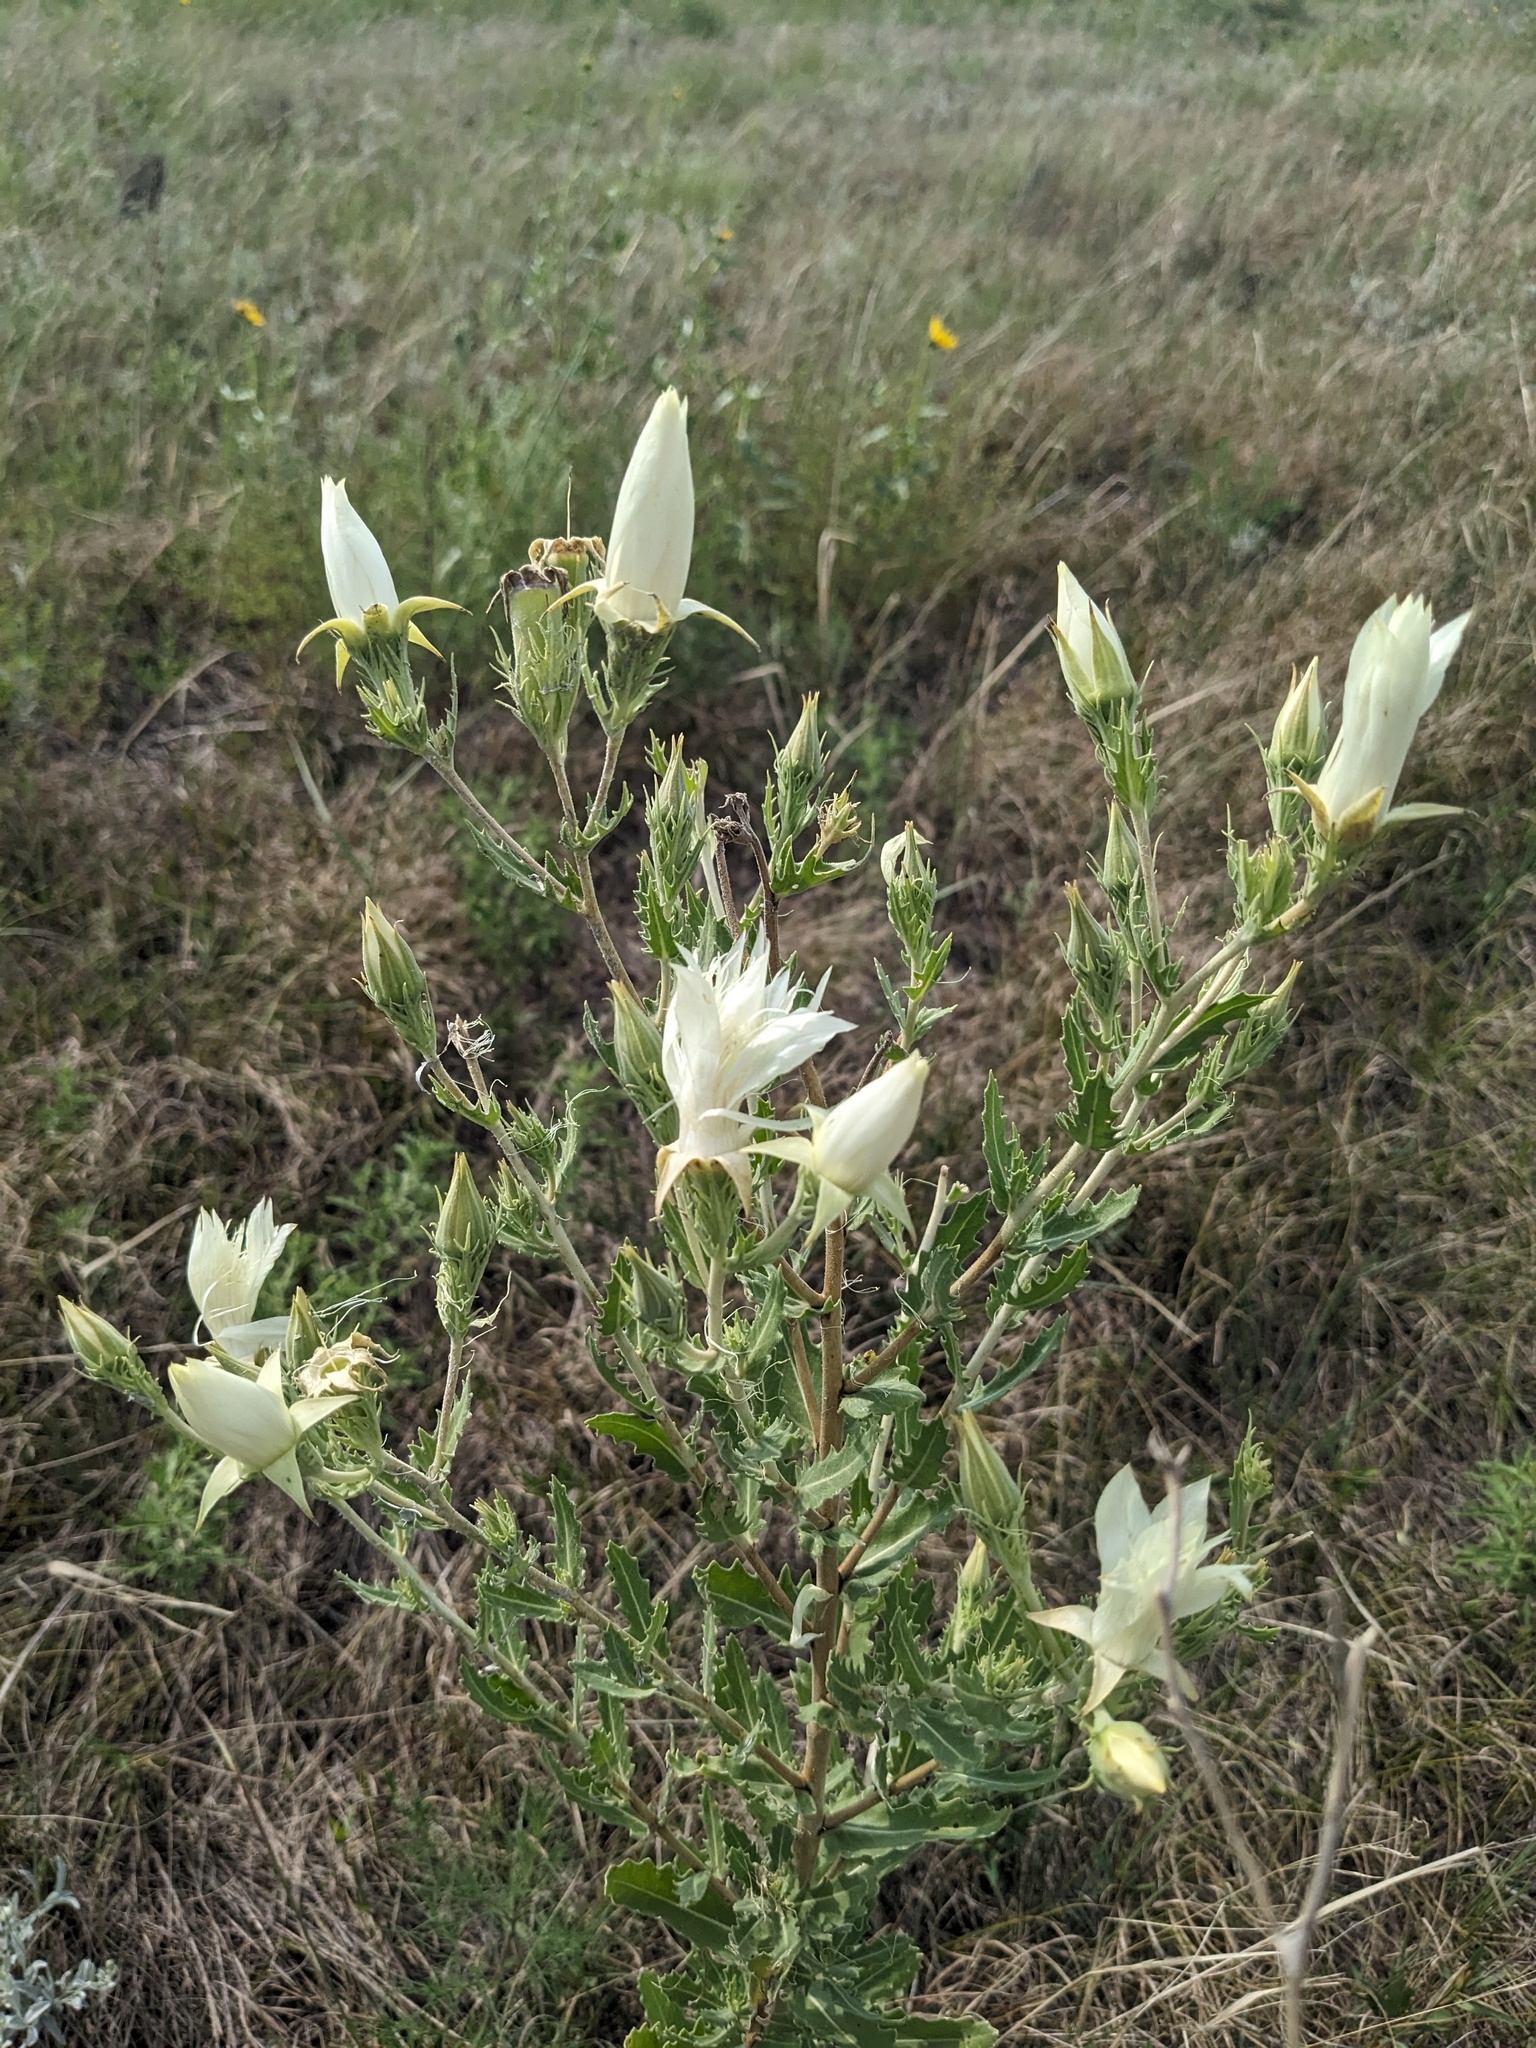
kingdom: Plantae
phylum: Tracheophyta
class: Magnoliopsida
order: Cornales
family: Loasaceae
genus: Mentzelia
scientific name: Mentzelia decapetala
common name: Gumbo-lily
